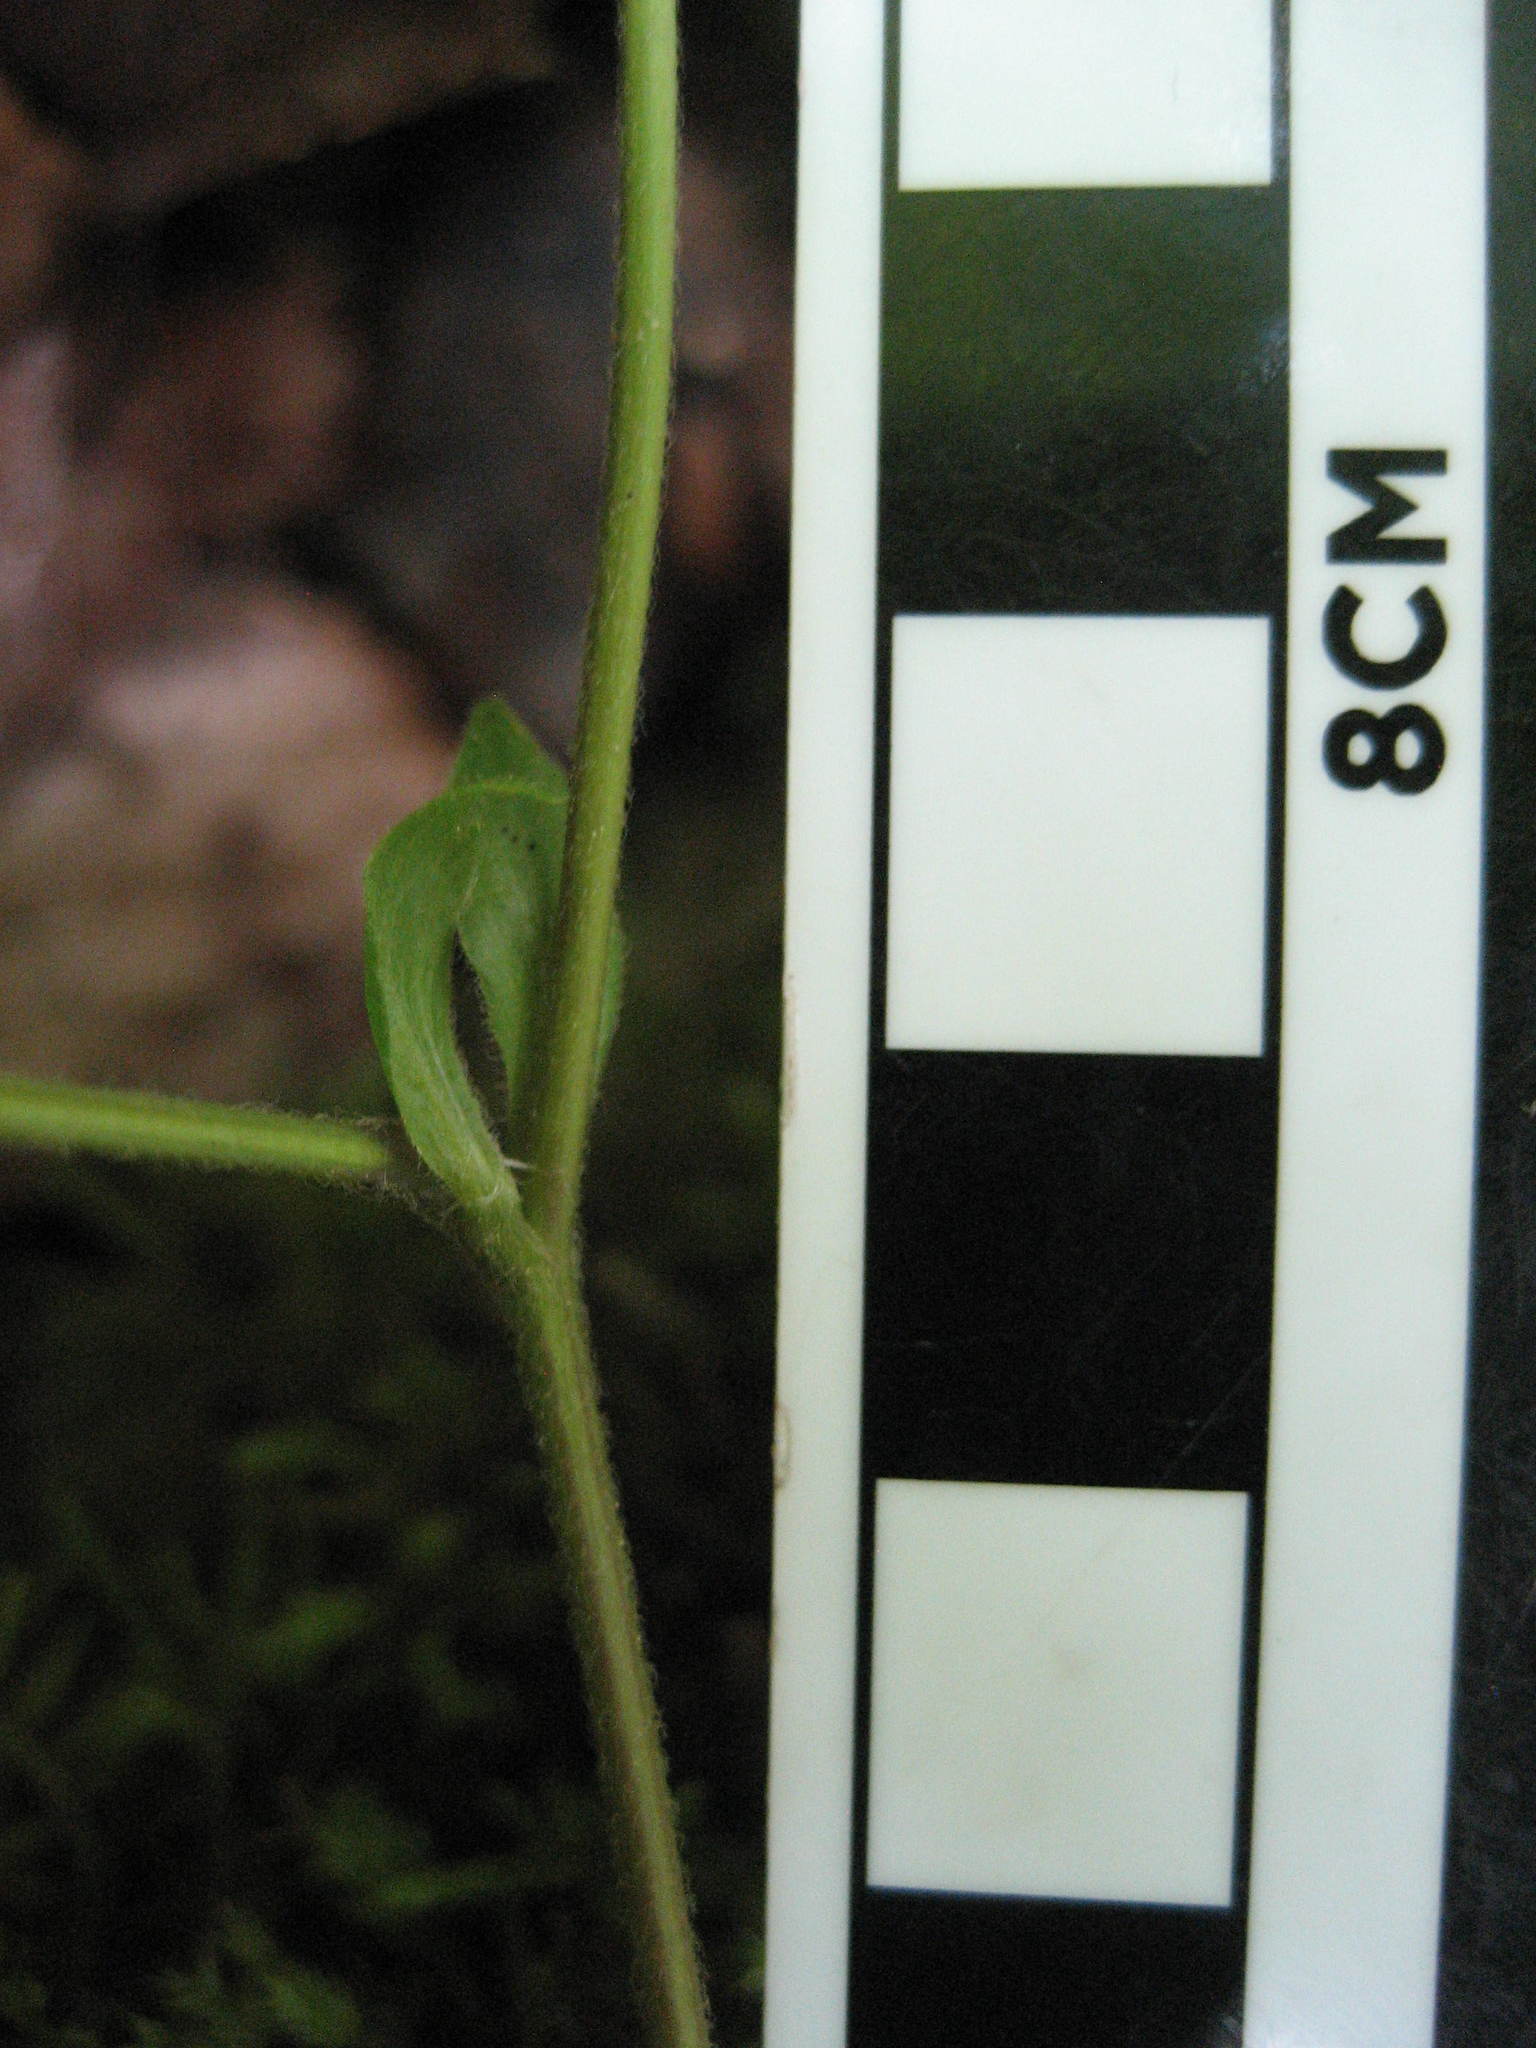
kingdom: Plantae
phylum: Tracheophyta
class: Magnoliopsida
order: Rosales
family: Rosaceae
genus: Rubus
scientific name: Rubus pubescens
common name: Dwarf raspberry
